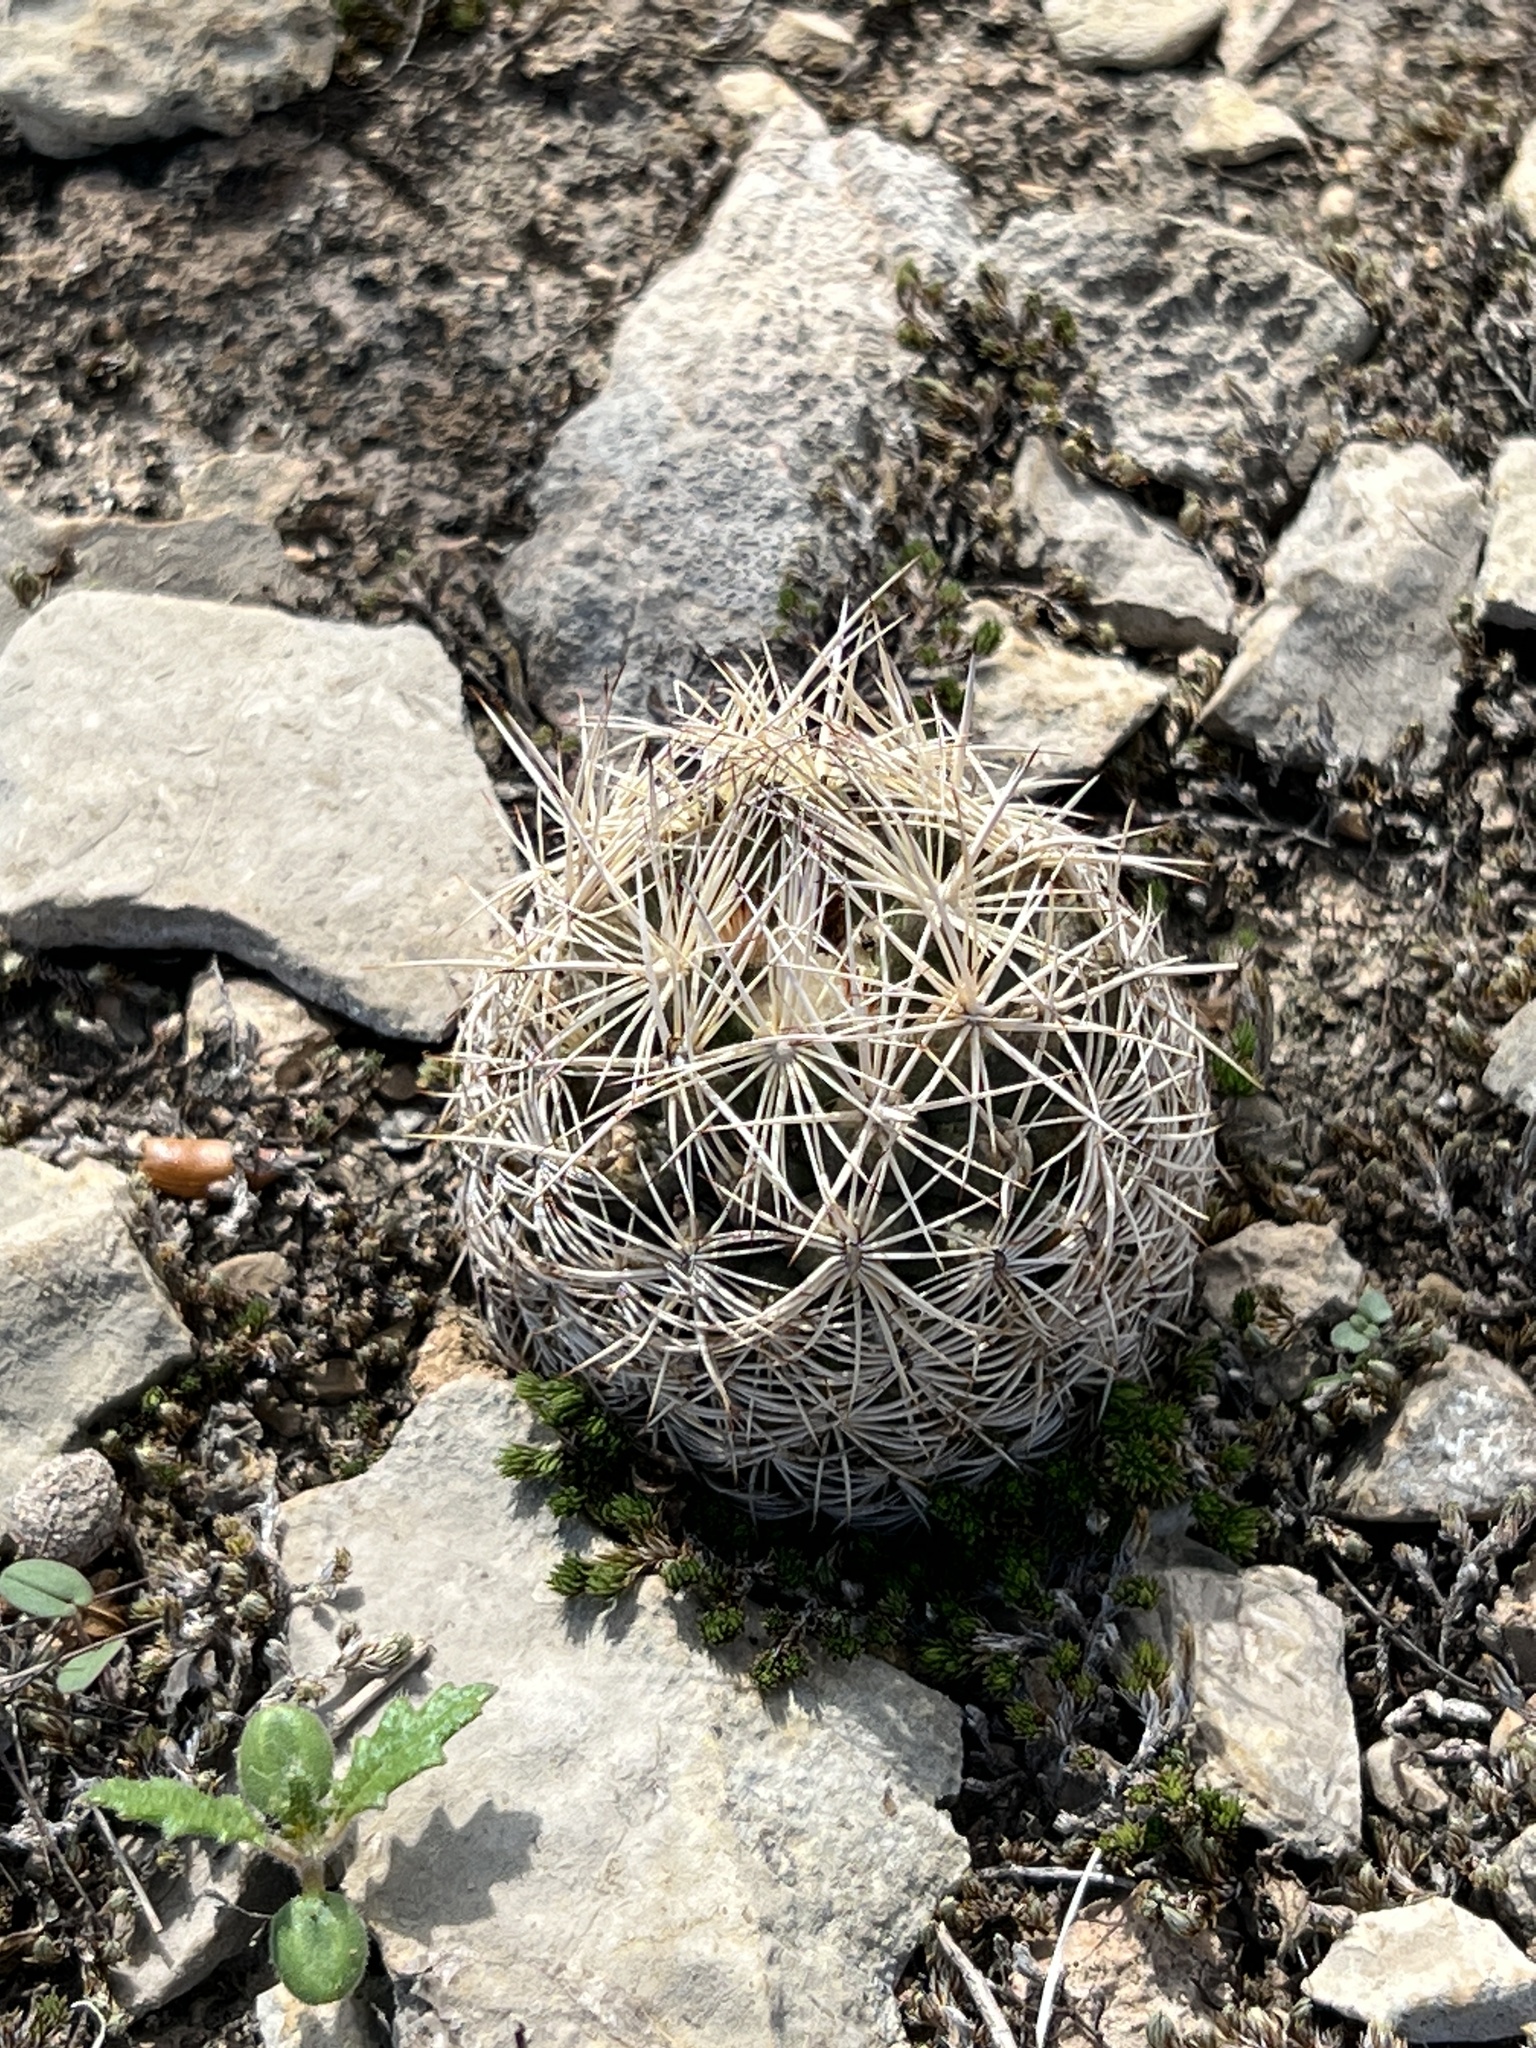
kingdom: Plantae
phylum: Tracheophyta
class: Magnoliopsida
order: Caryophyllales
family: Cactaceae
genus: Coryphantha
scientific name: Coryphantha echinus
